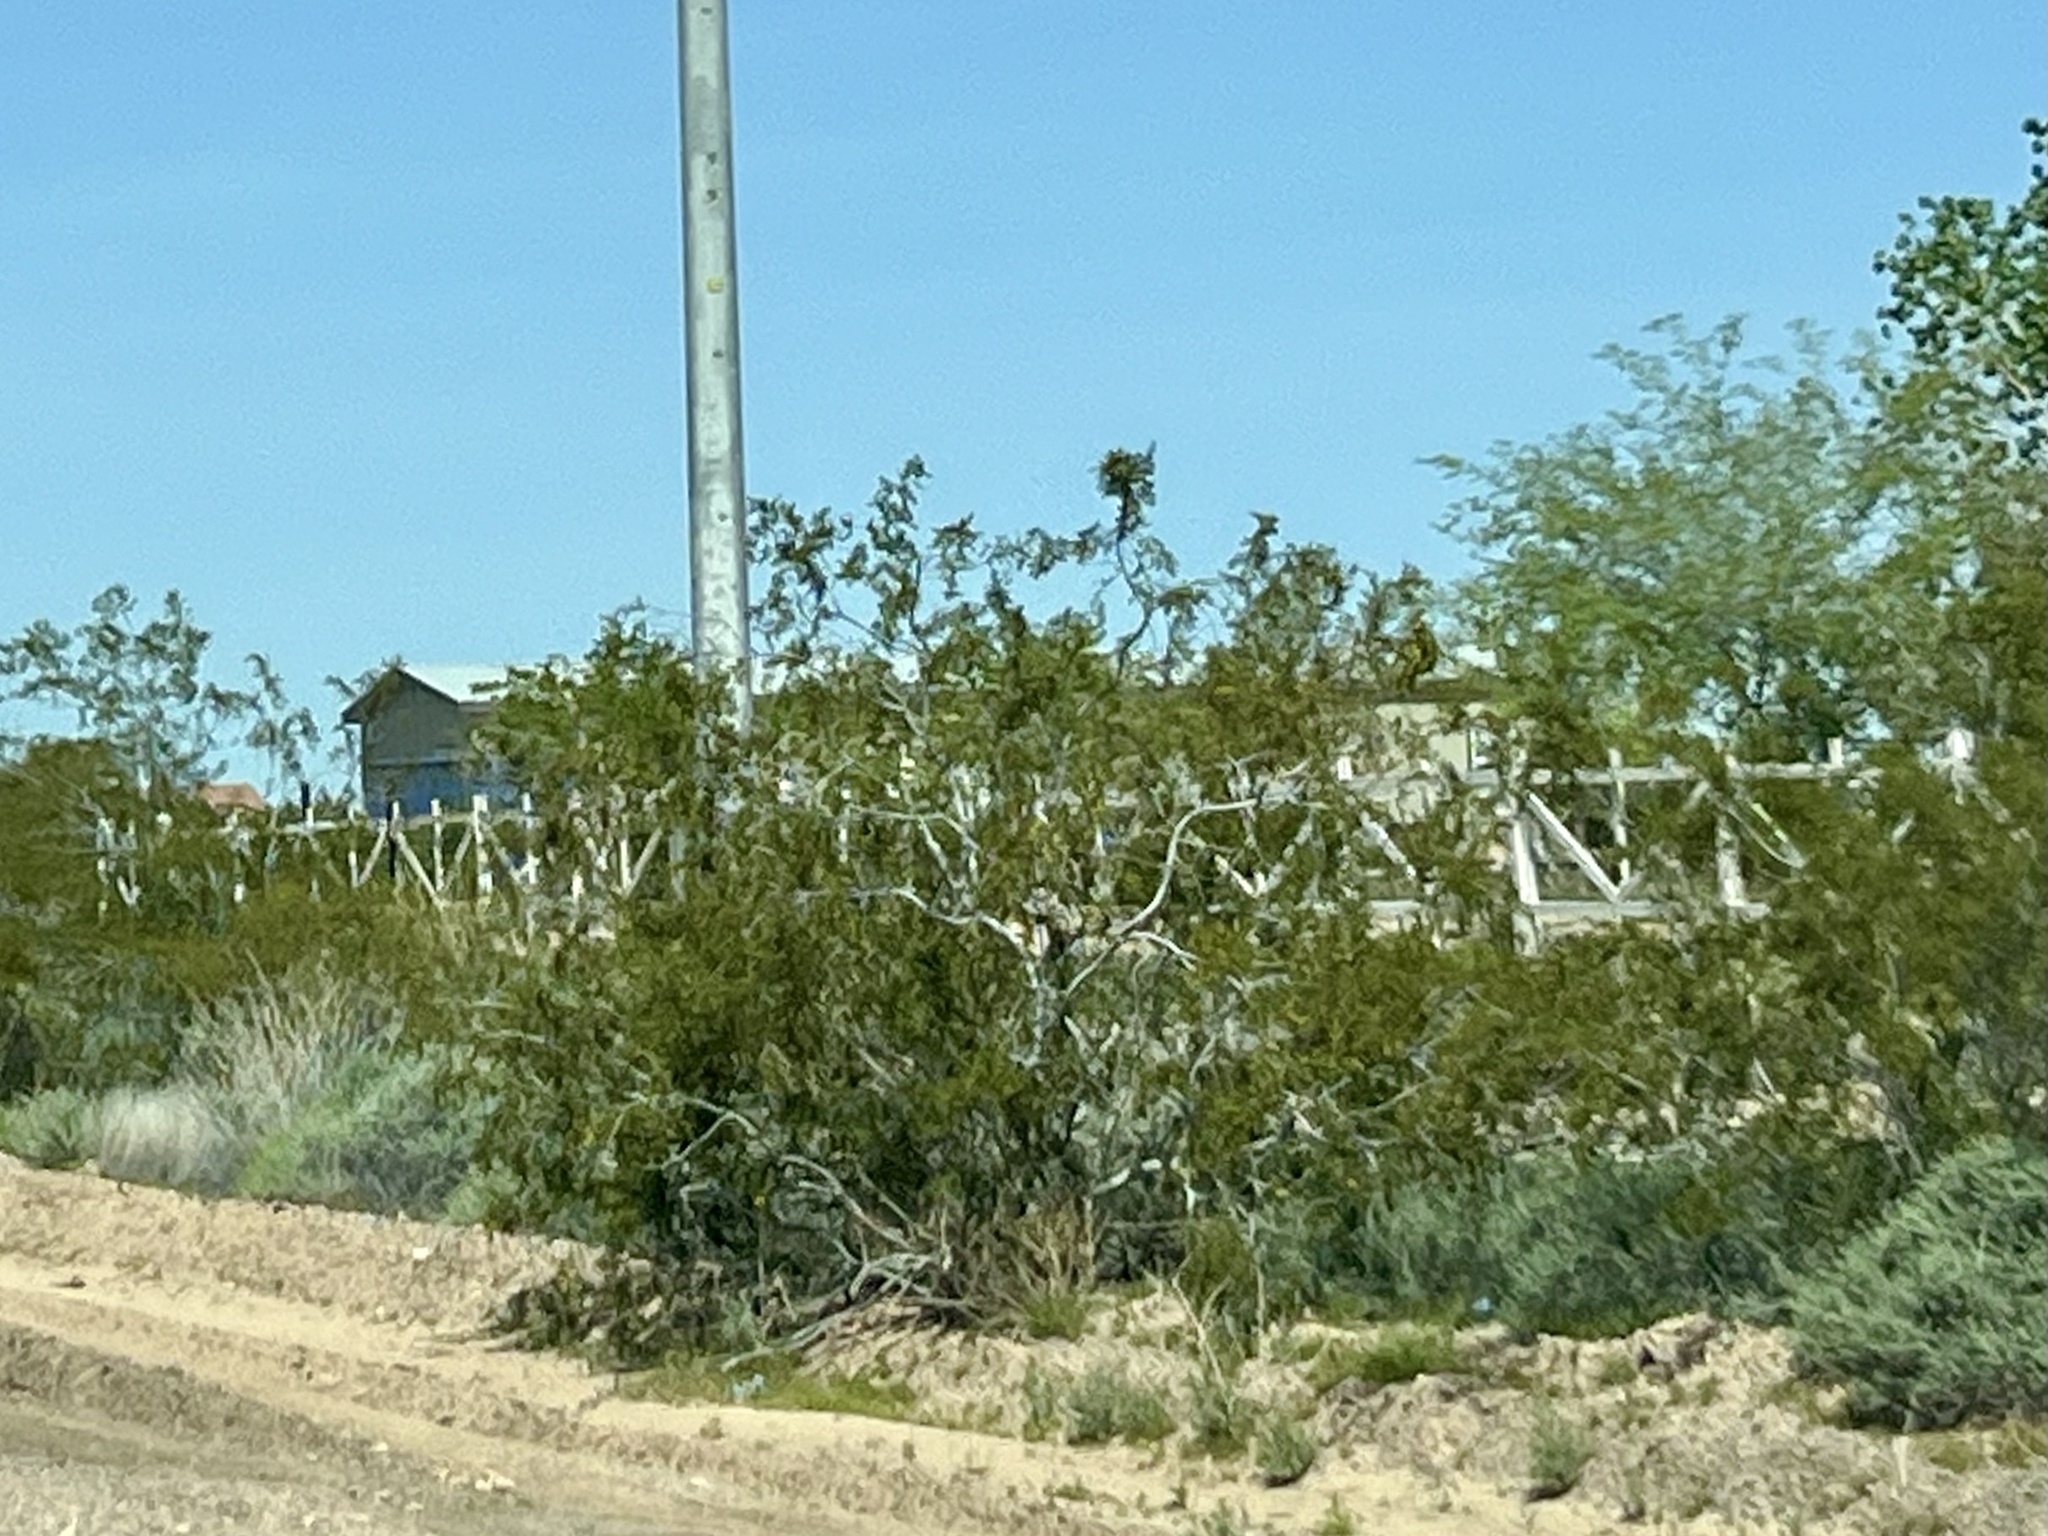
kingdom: Plantae
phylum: Tracheophyta
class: Magnoliopsida
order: Zygophyllales
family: Zygophyllaceae
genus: Larrea
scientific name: Larrea tridentata
